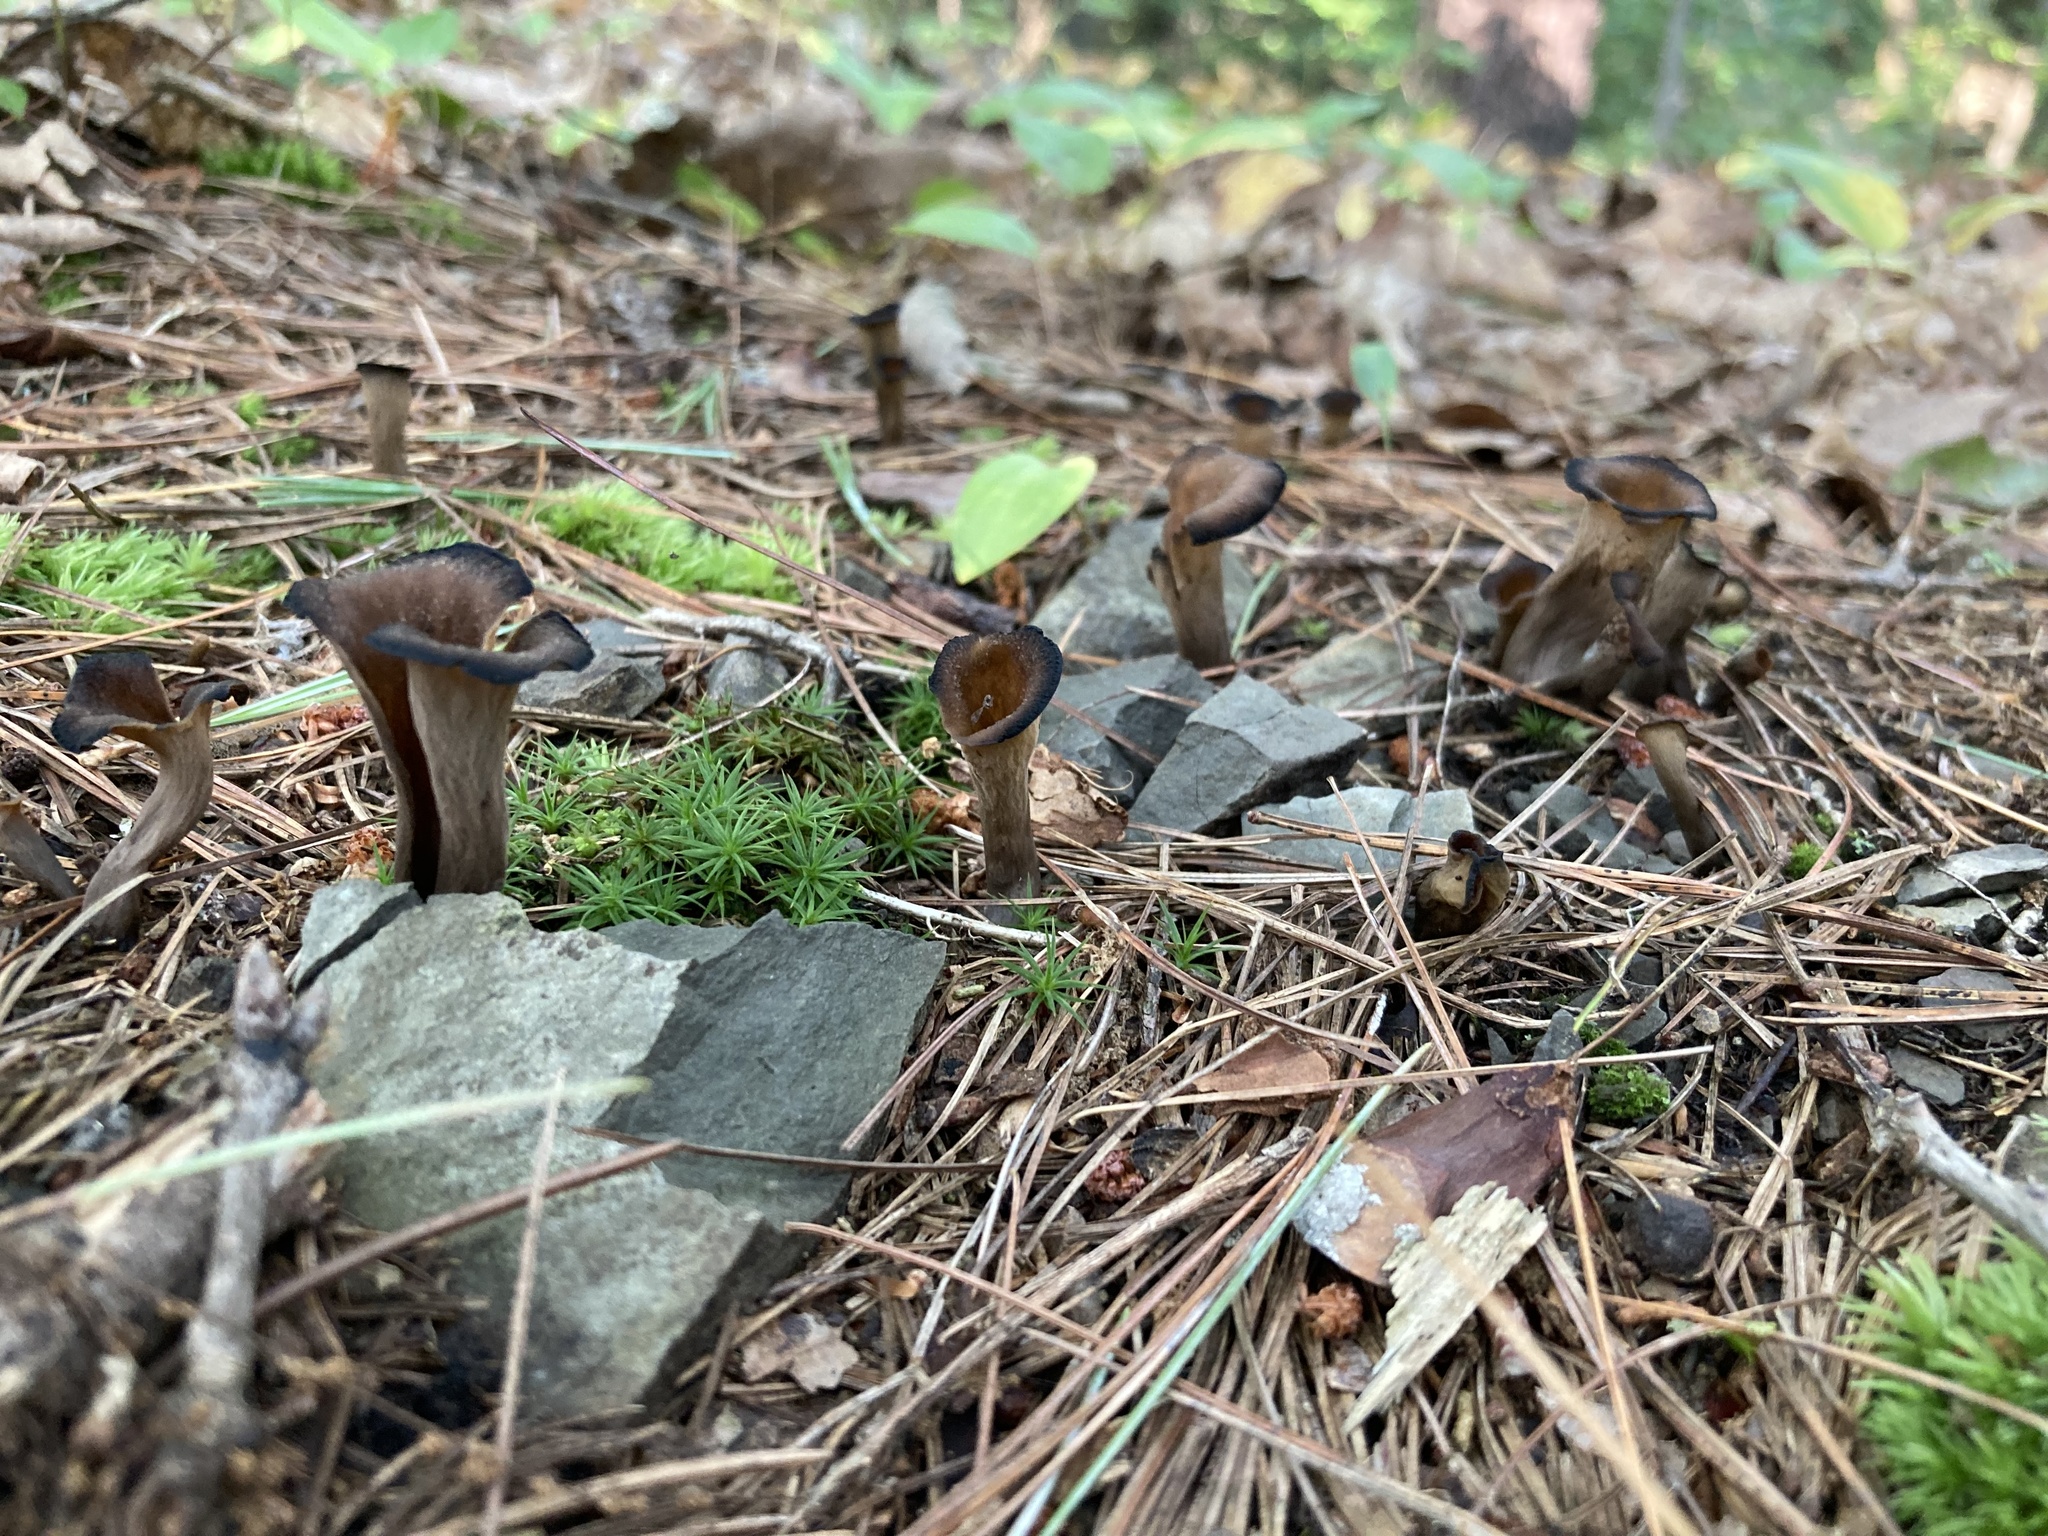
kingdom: Fungi
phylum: Basidiomycota
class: Agaricomycetes
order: Cantharellales
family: Hydnaceae
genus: Craterellus
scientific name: Craterellus cornucopioides
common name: Horn of plenty
